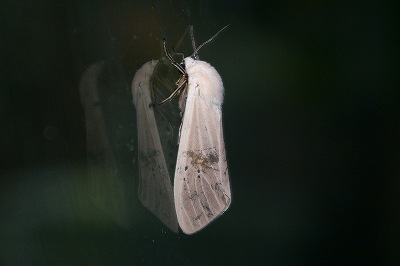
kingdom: Animalia
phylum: Arthropoda
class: Insecta
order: Lepidoptera
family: Erebidae
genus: Creatonotos
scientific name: Creatonotos transiens
